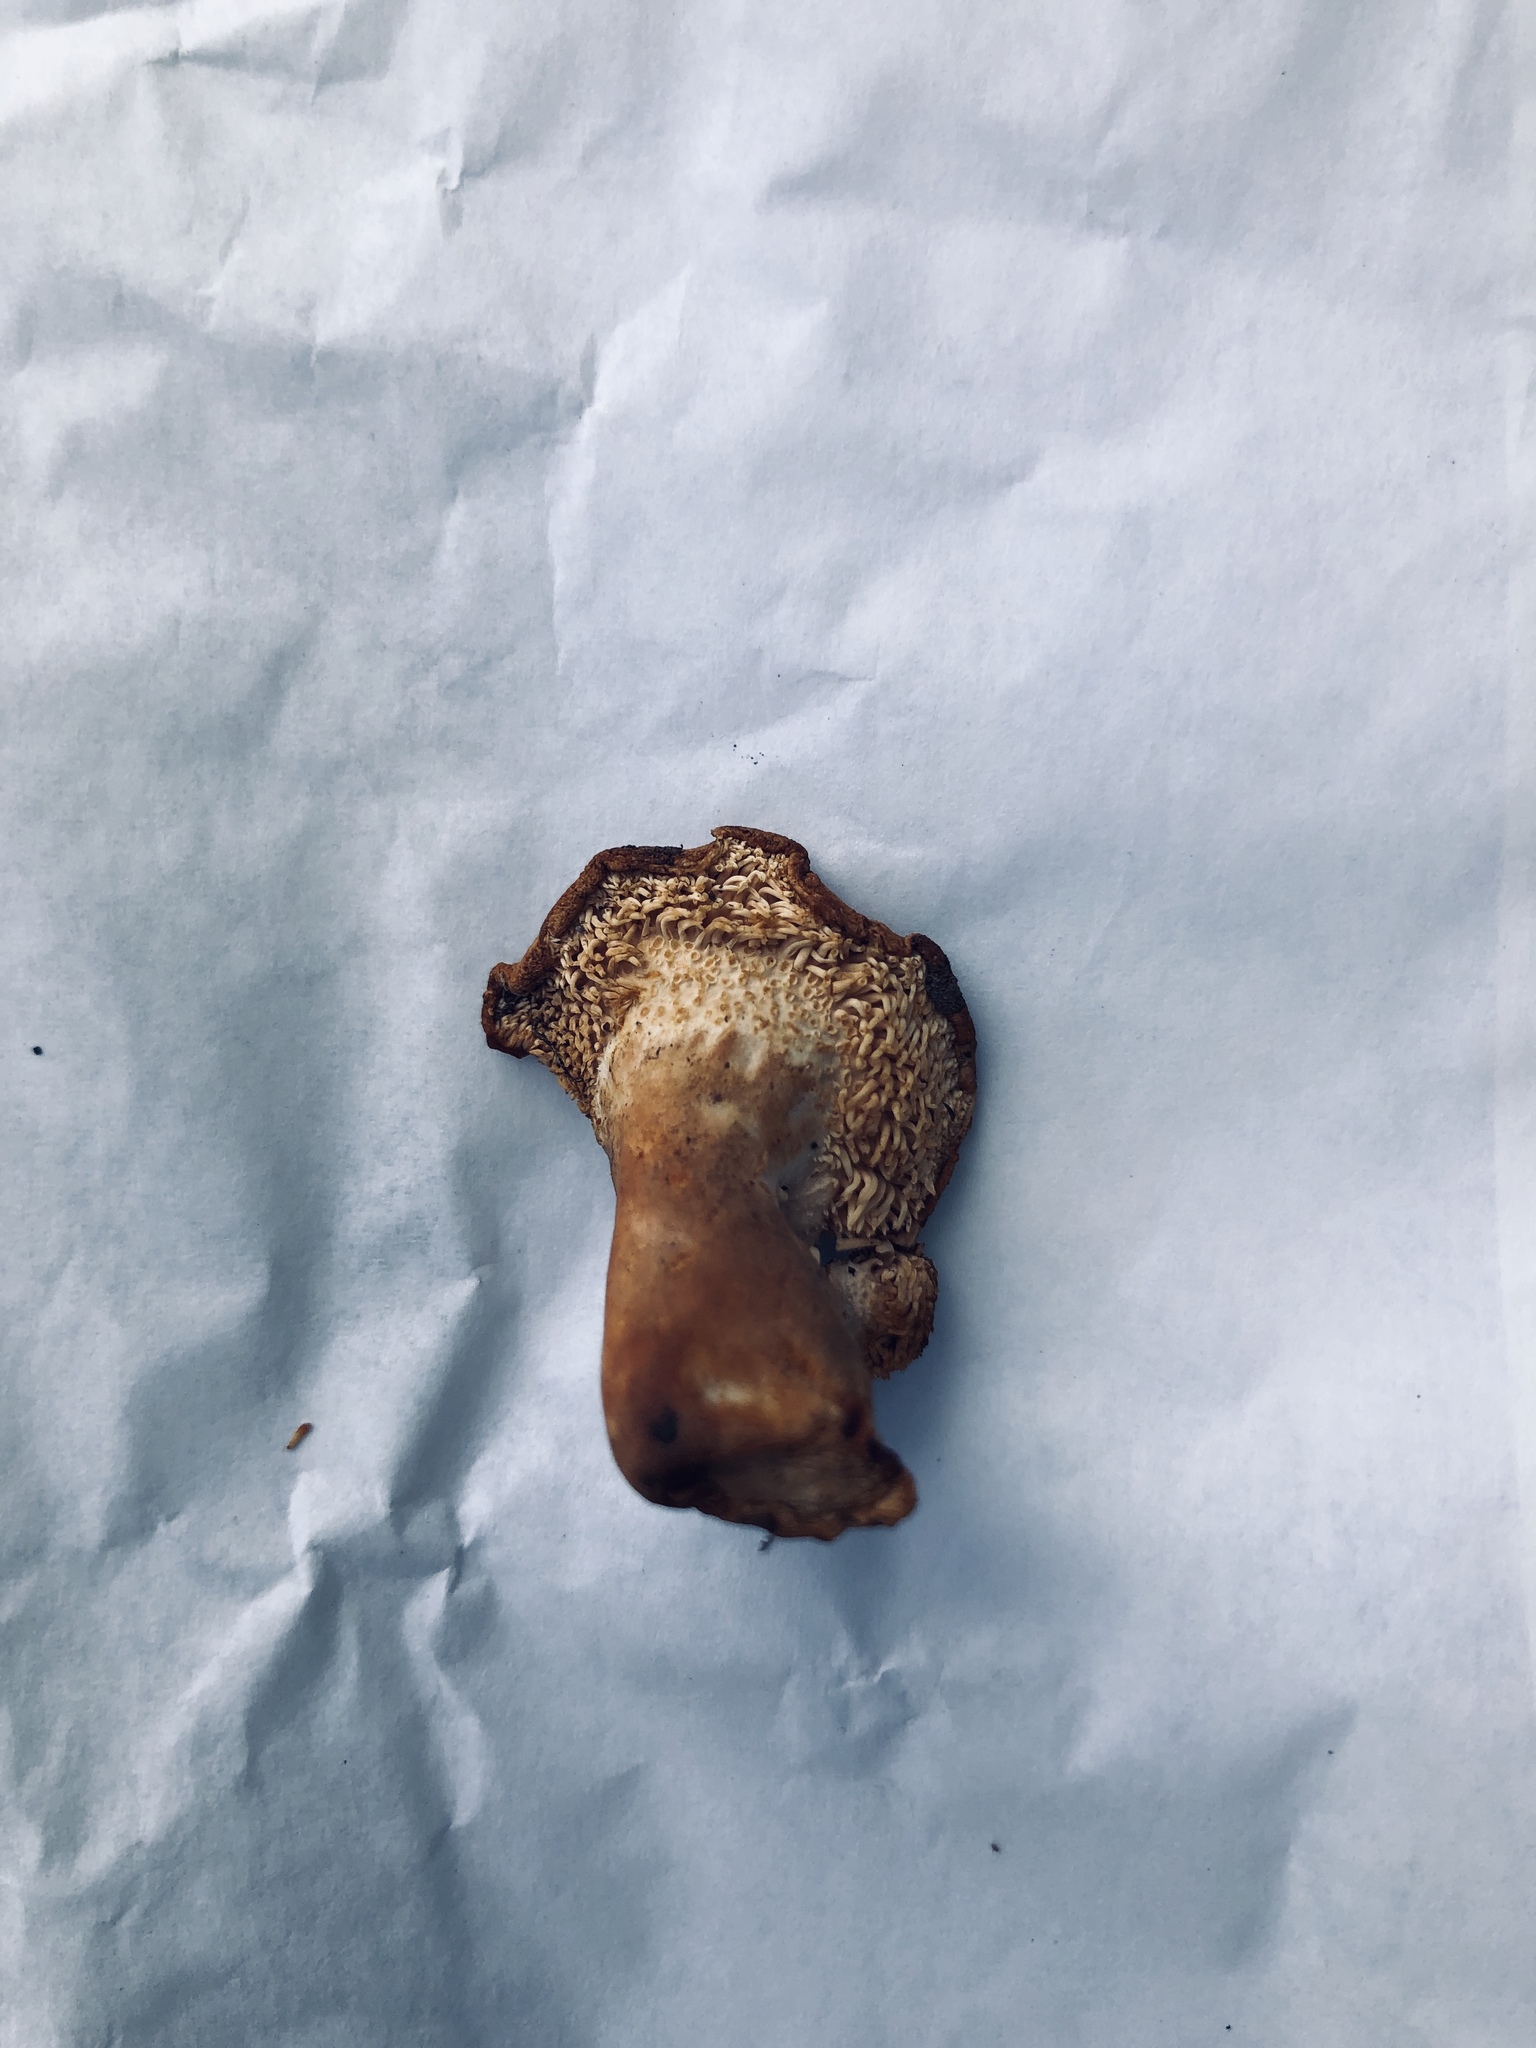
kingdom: Fungi
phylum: Basidiomycota
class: Agaricomycetes
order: Cantharellales
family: Hydnaceae
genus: Hydnum
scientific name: Hydnum melitosarx
